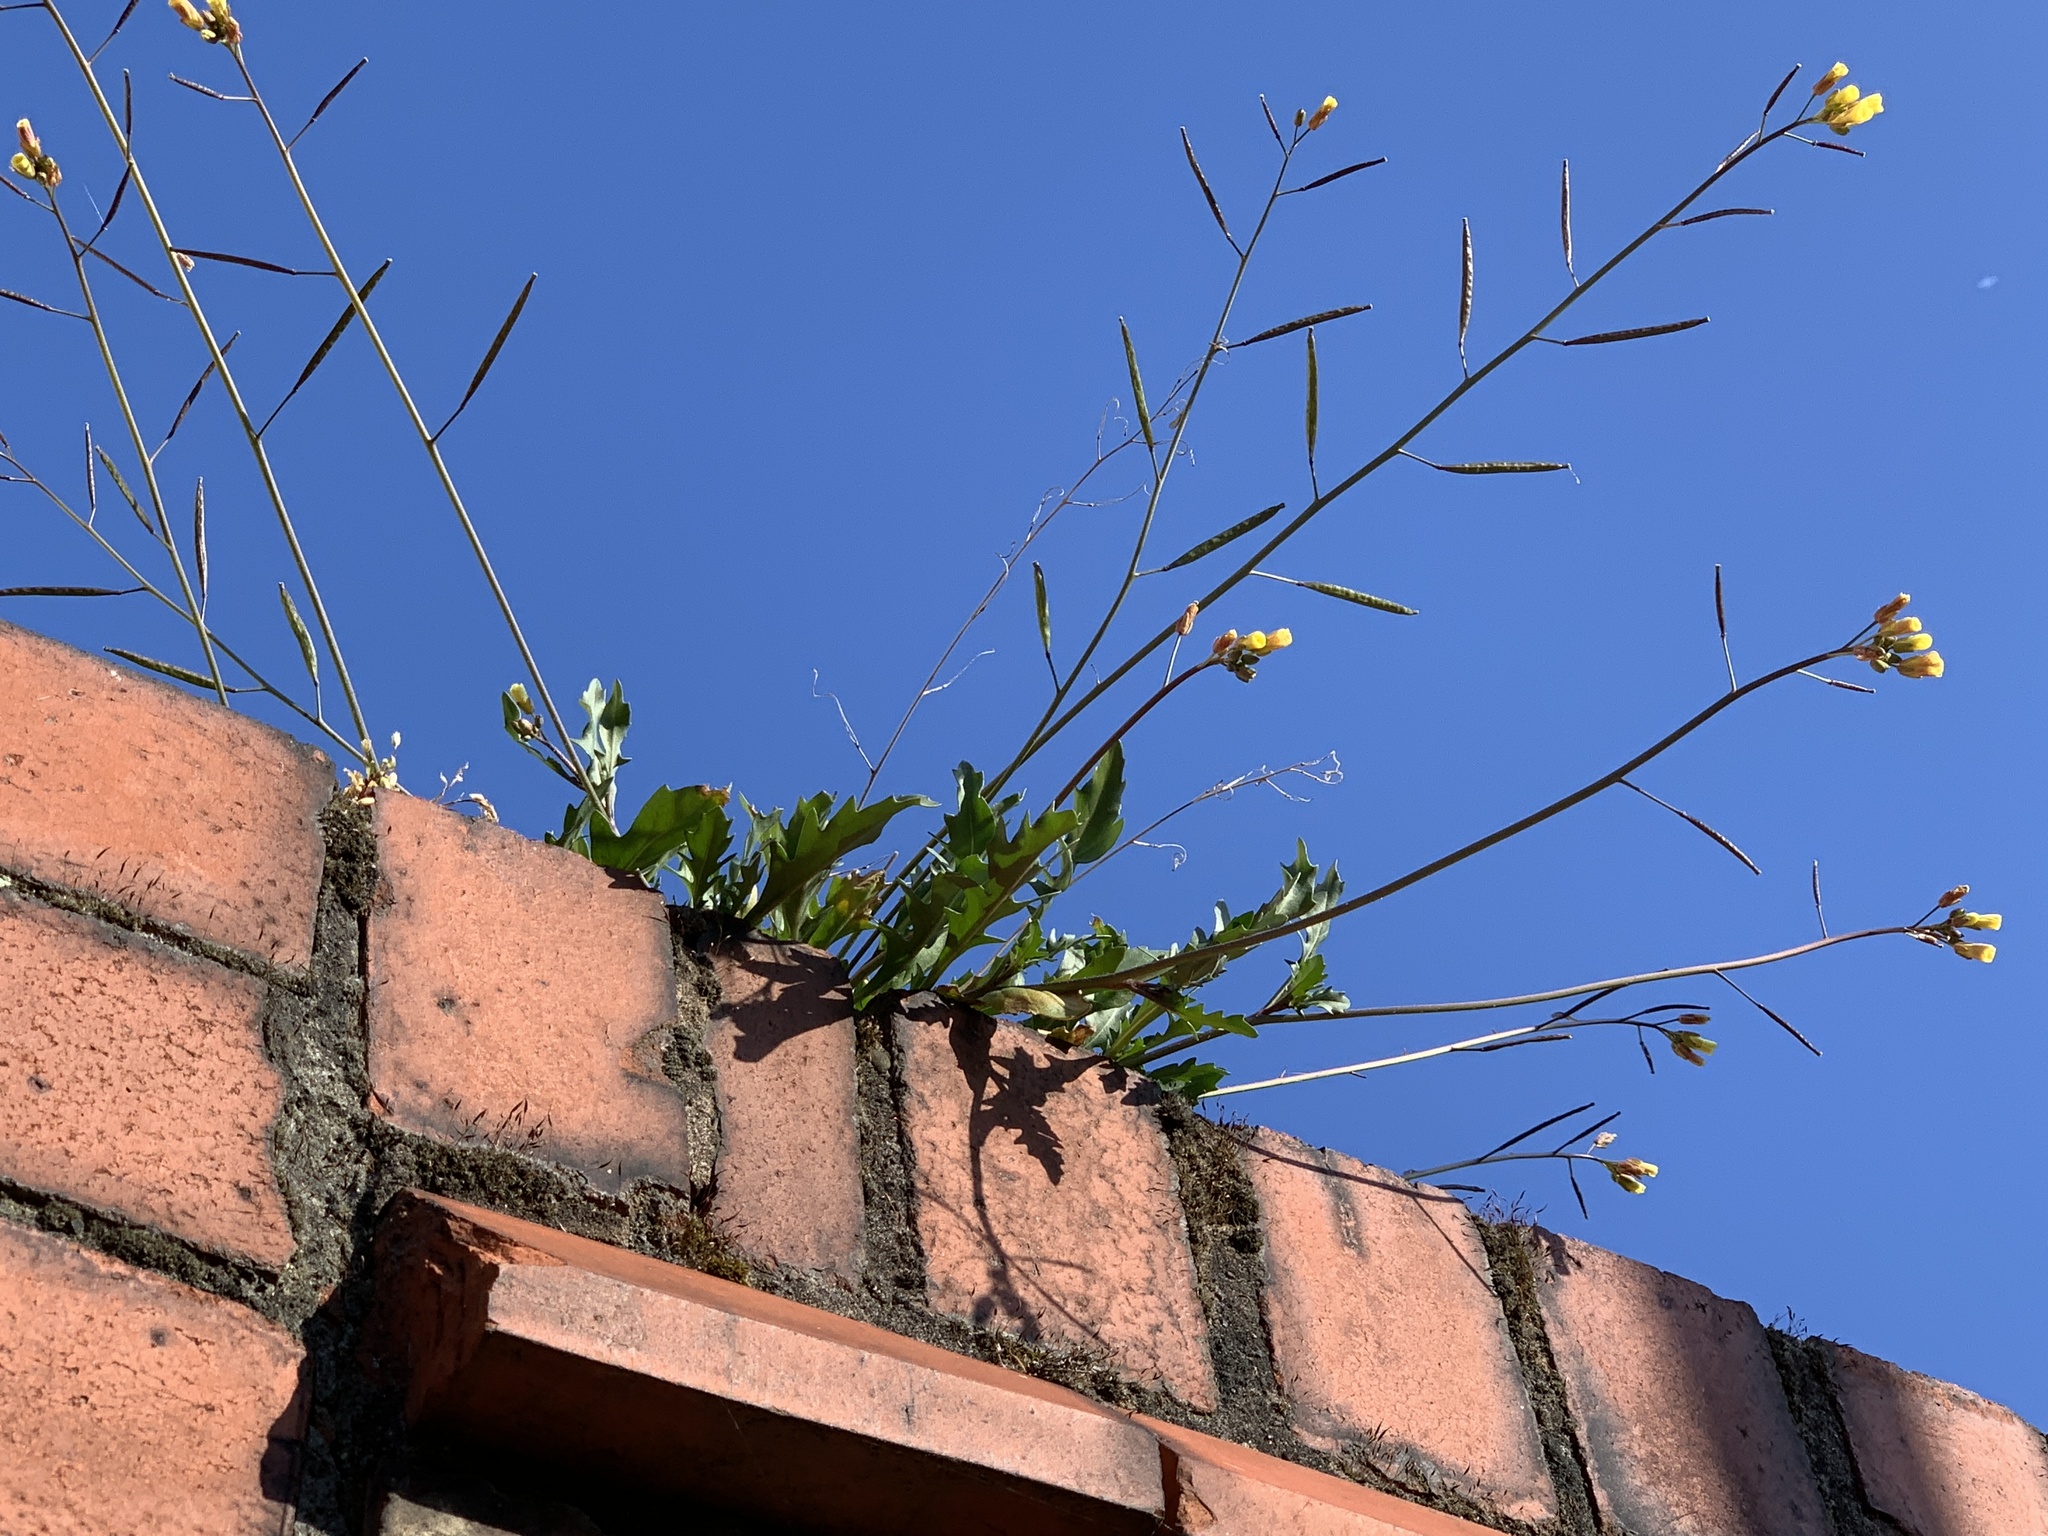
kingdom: Plantae
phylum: Tracheophyta
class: Magnoliopsida
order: Brassicales
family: Brassicaceae
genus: Diplotaxis
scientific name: Diplotaxis muralis
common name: Annual wall-rocket
